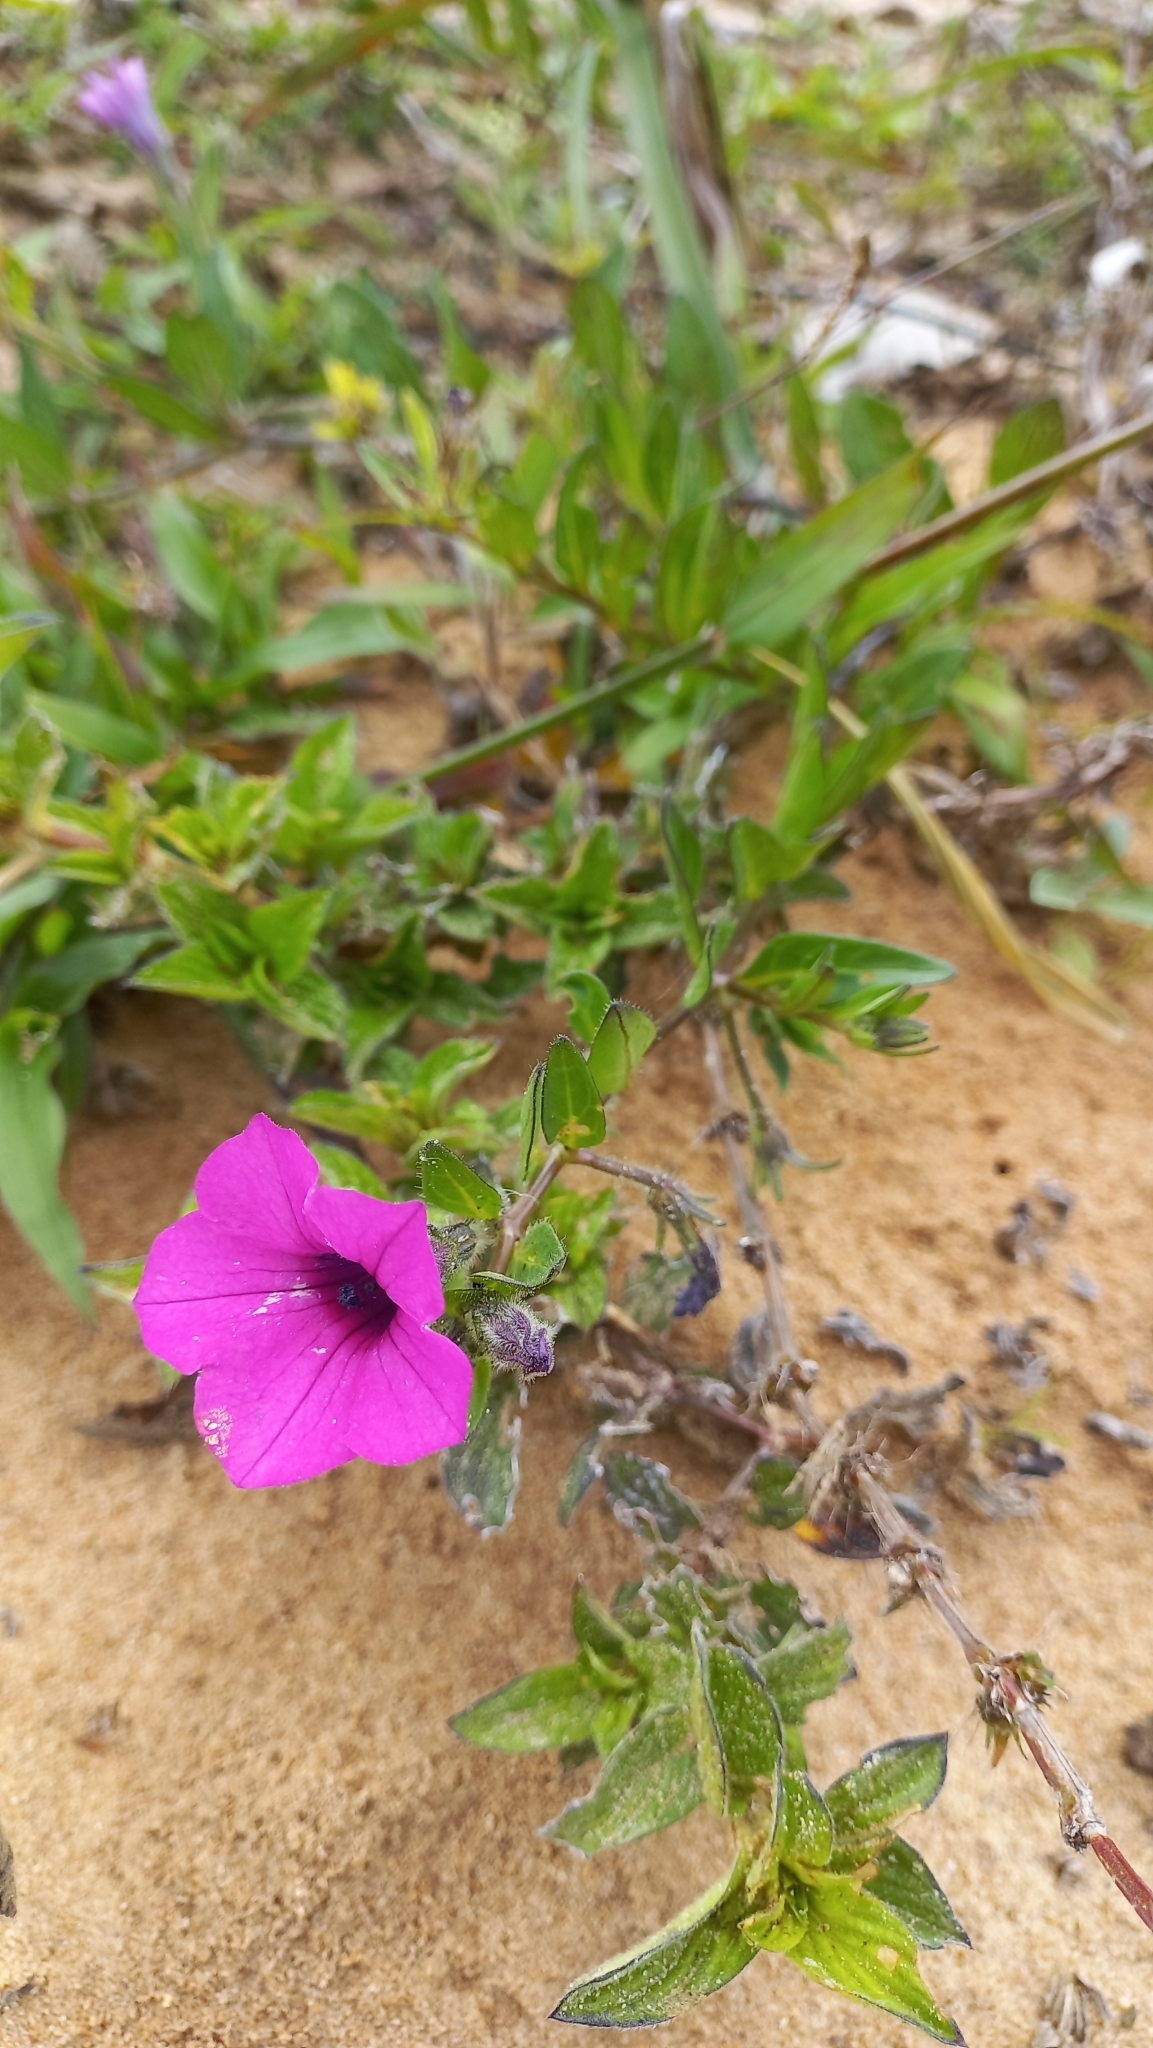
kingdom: Plantae
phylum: Tracheophyta
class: Magnoliopsida
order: Solanales
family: Solanaceae
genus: Petunia
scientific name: Petunia integrifolia
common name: Violet-flower petunia
